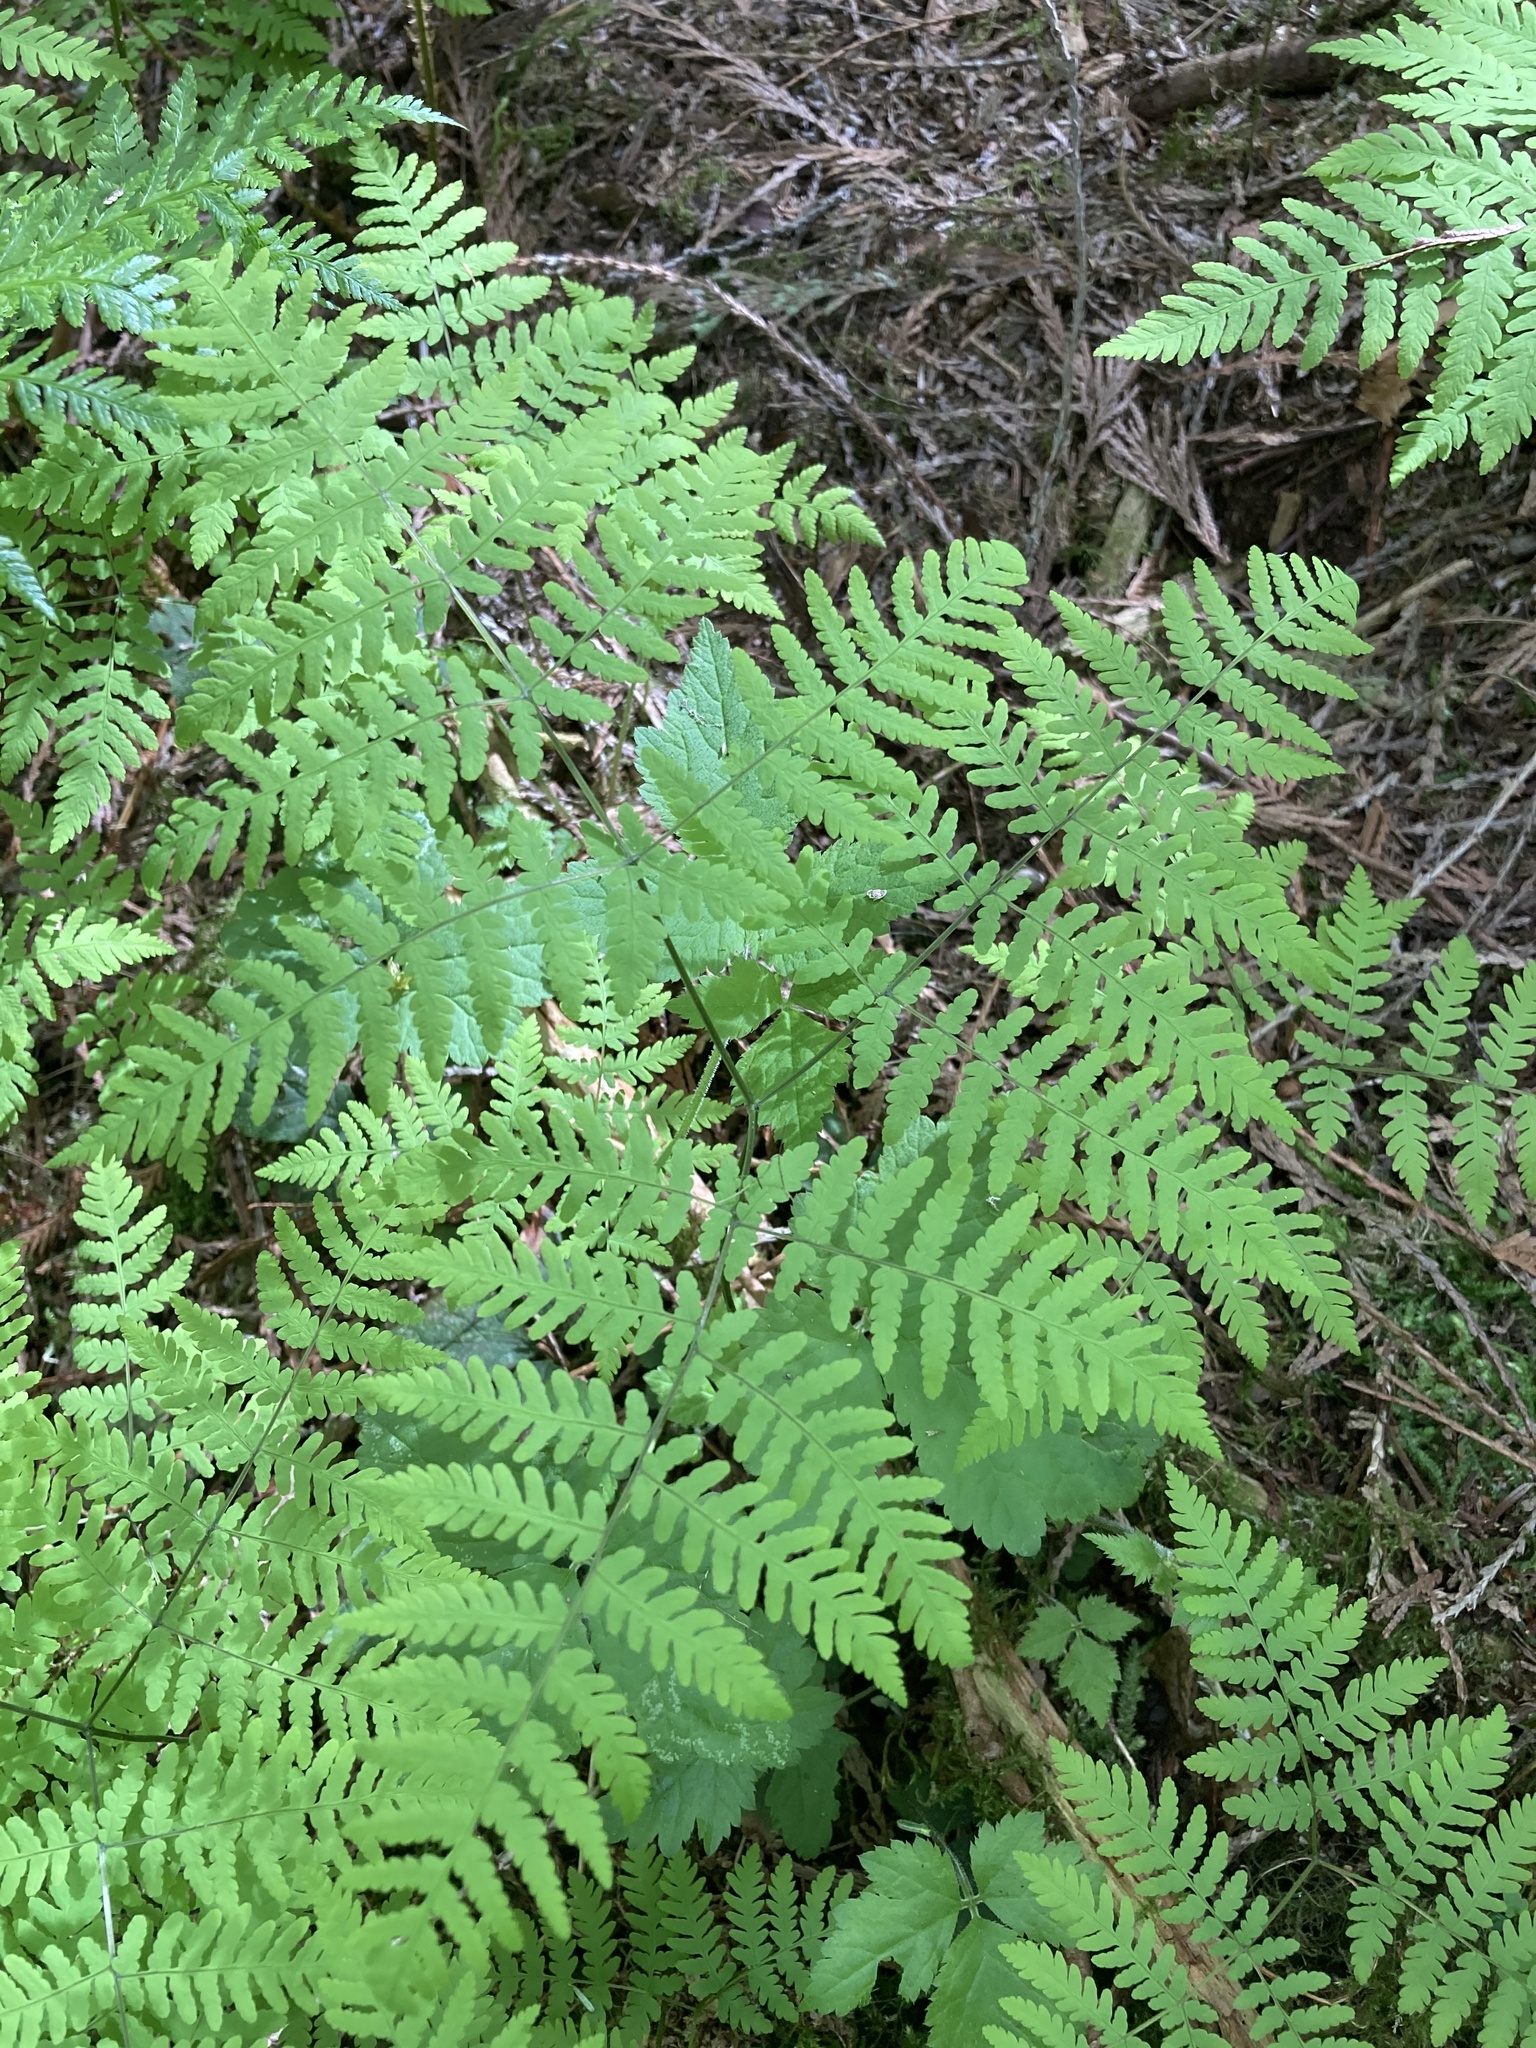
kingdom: Plantae
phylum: Tracheophyta
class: Polypodiopsida
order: Polypodiales
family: Cystopteridaceae
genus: Gymnocarpium
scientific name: Gymnocarpium disjunctum
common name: Western oak fern
